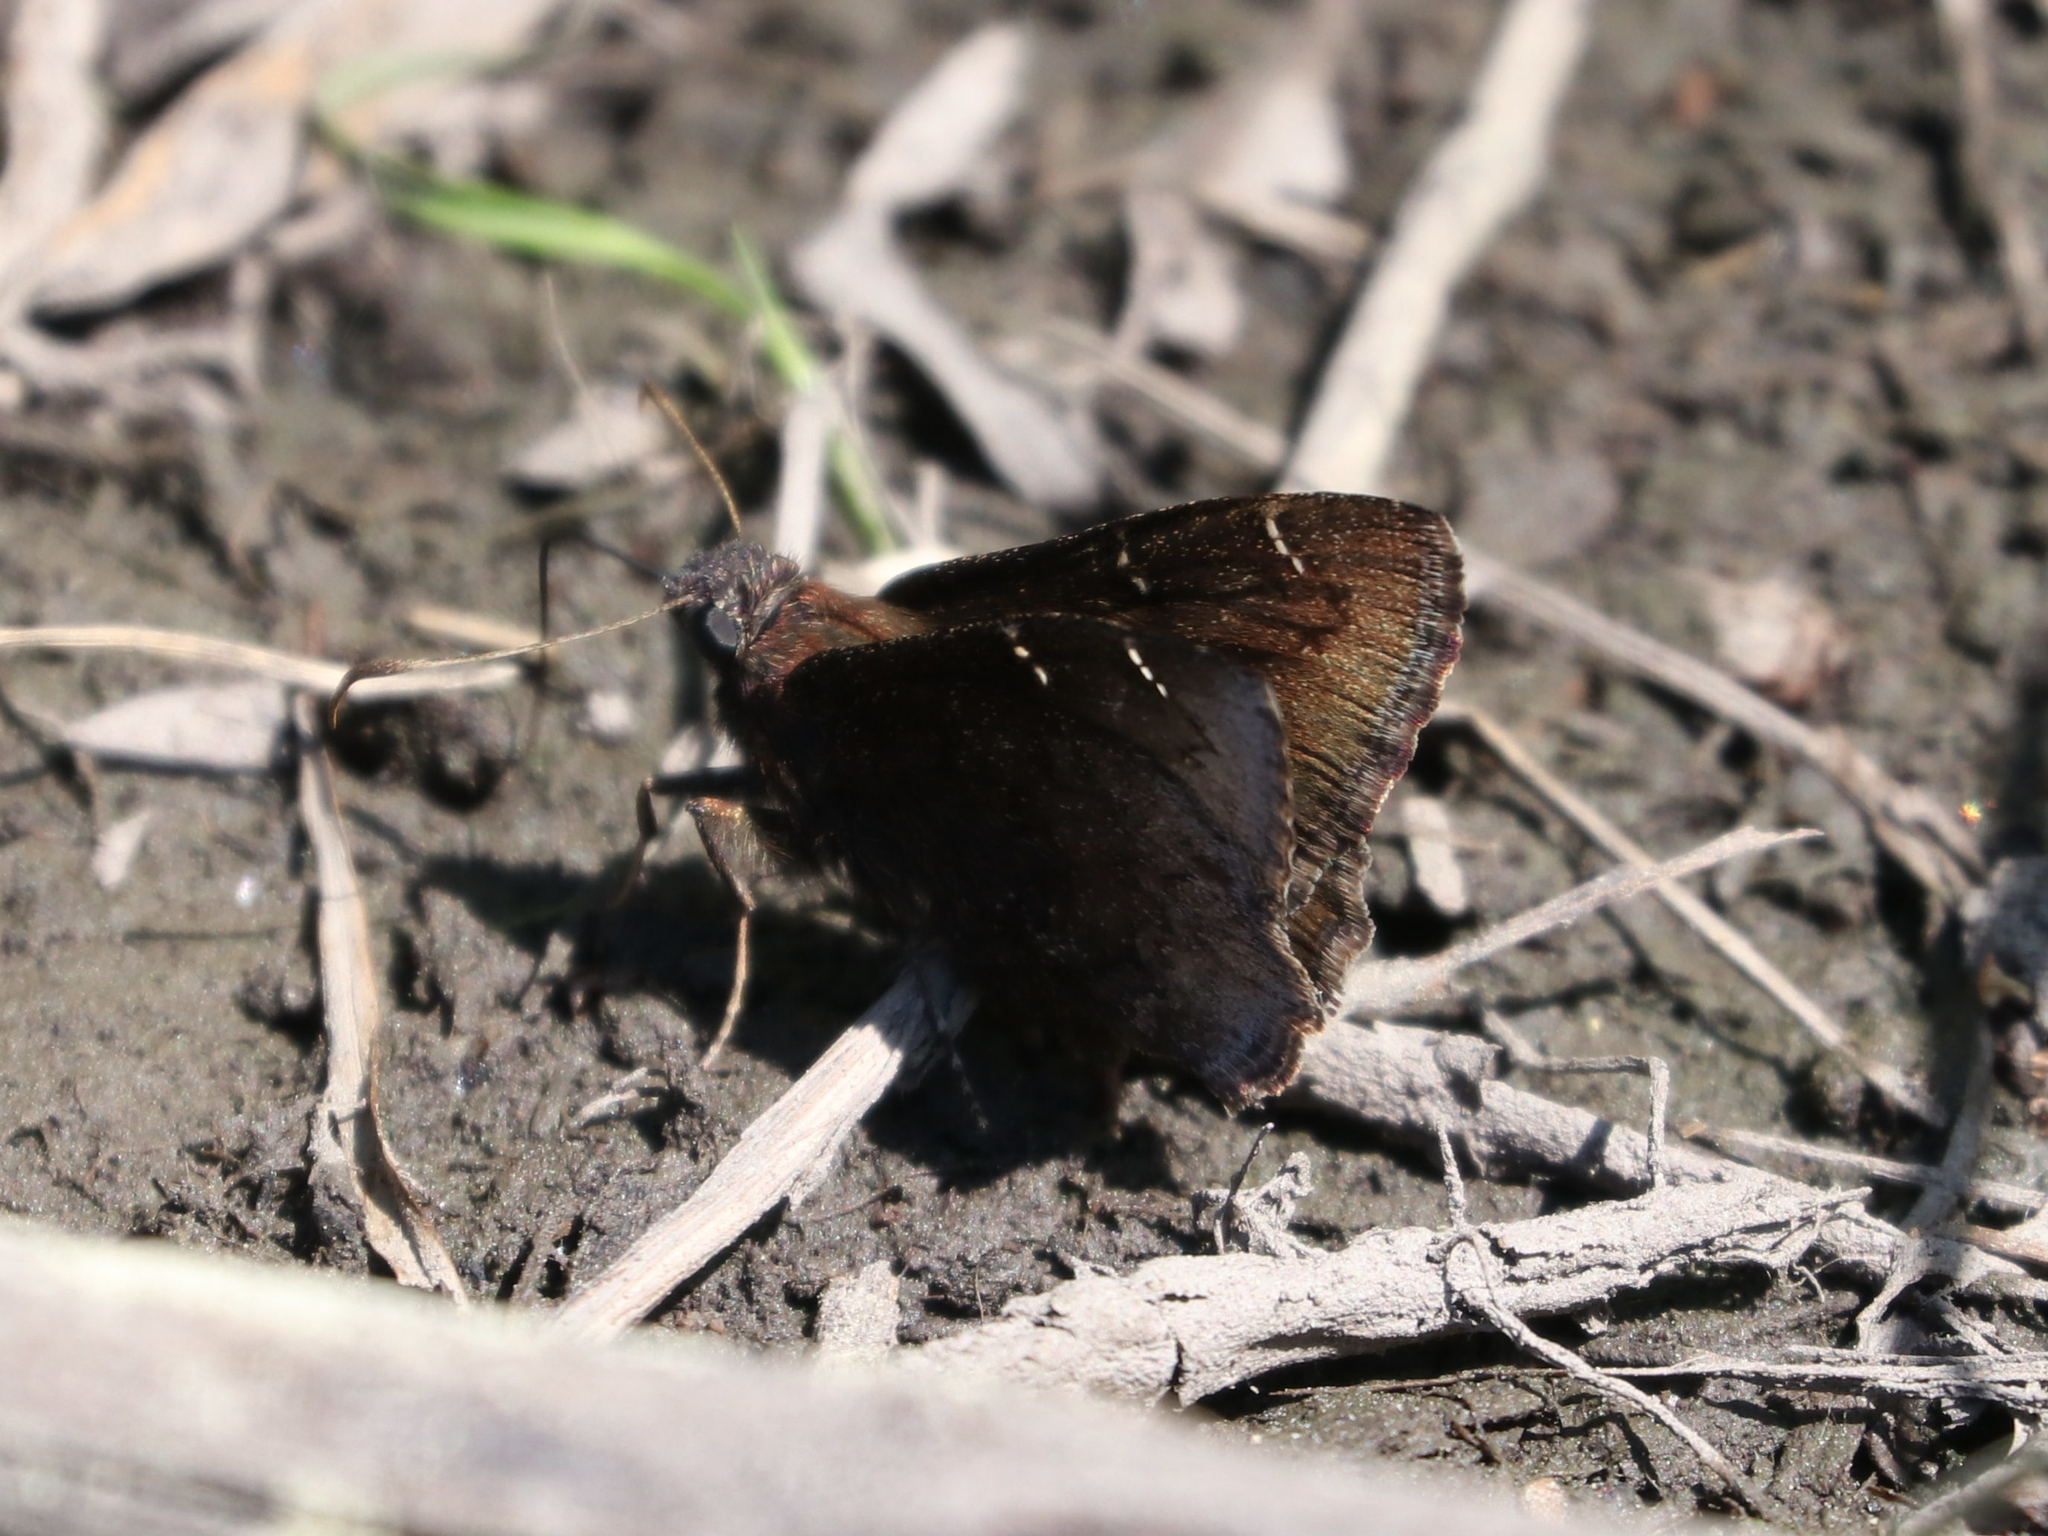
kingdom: Animalia
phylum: Arthropoda
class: Insecta
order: Lepidoptera
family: Hesperiidae
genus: Thorybes
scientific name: Thorybes pylades
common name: Northern cloudywing
